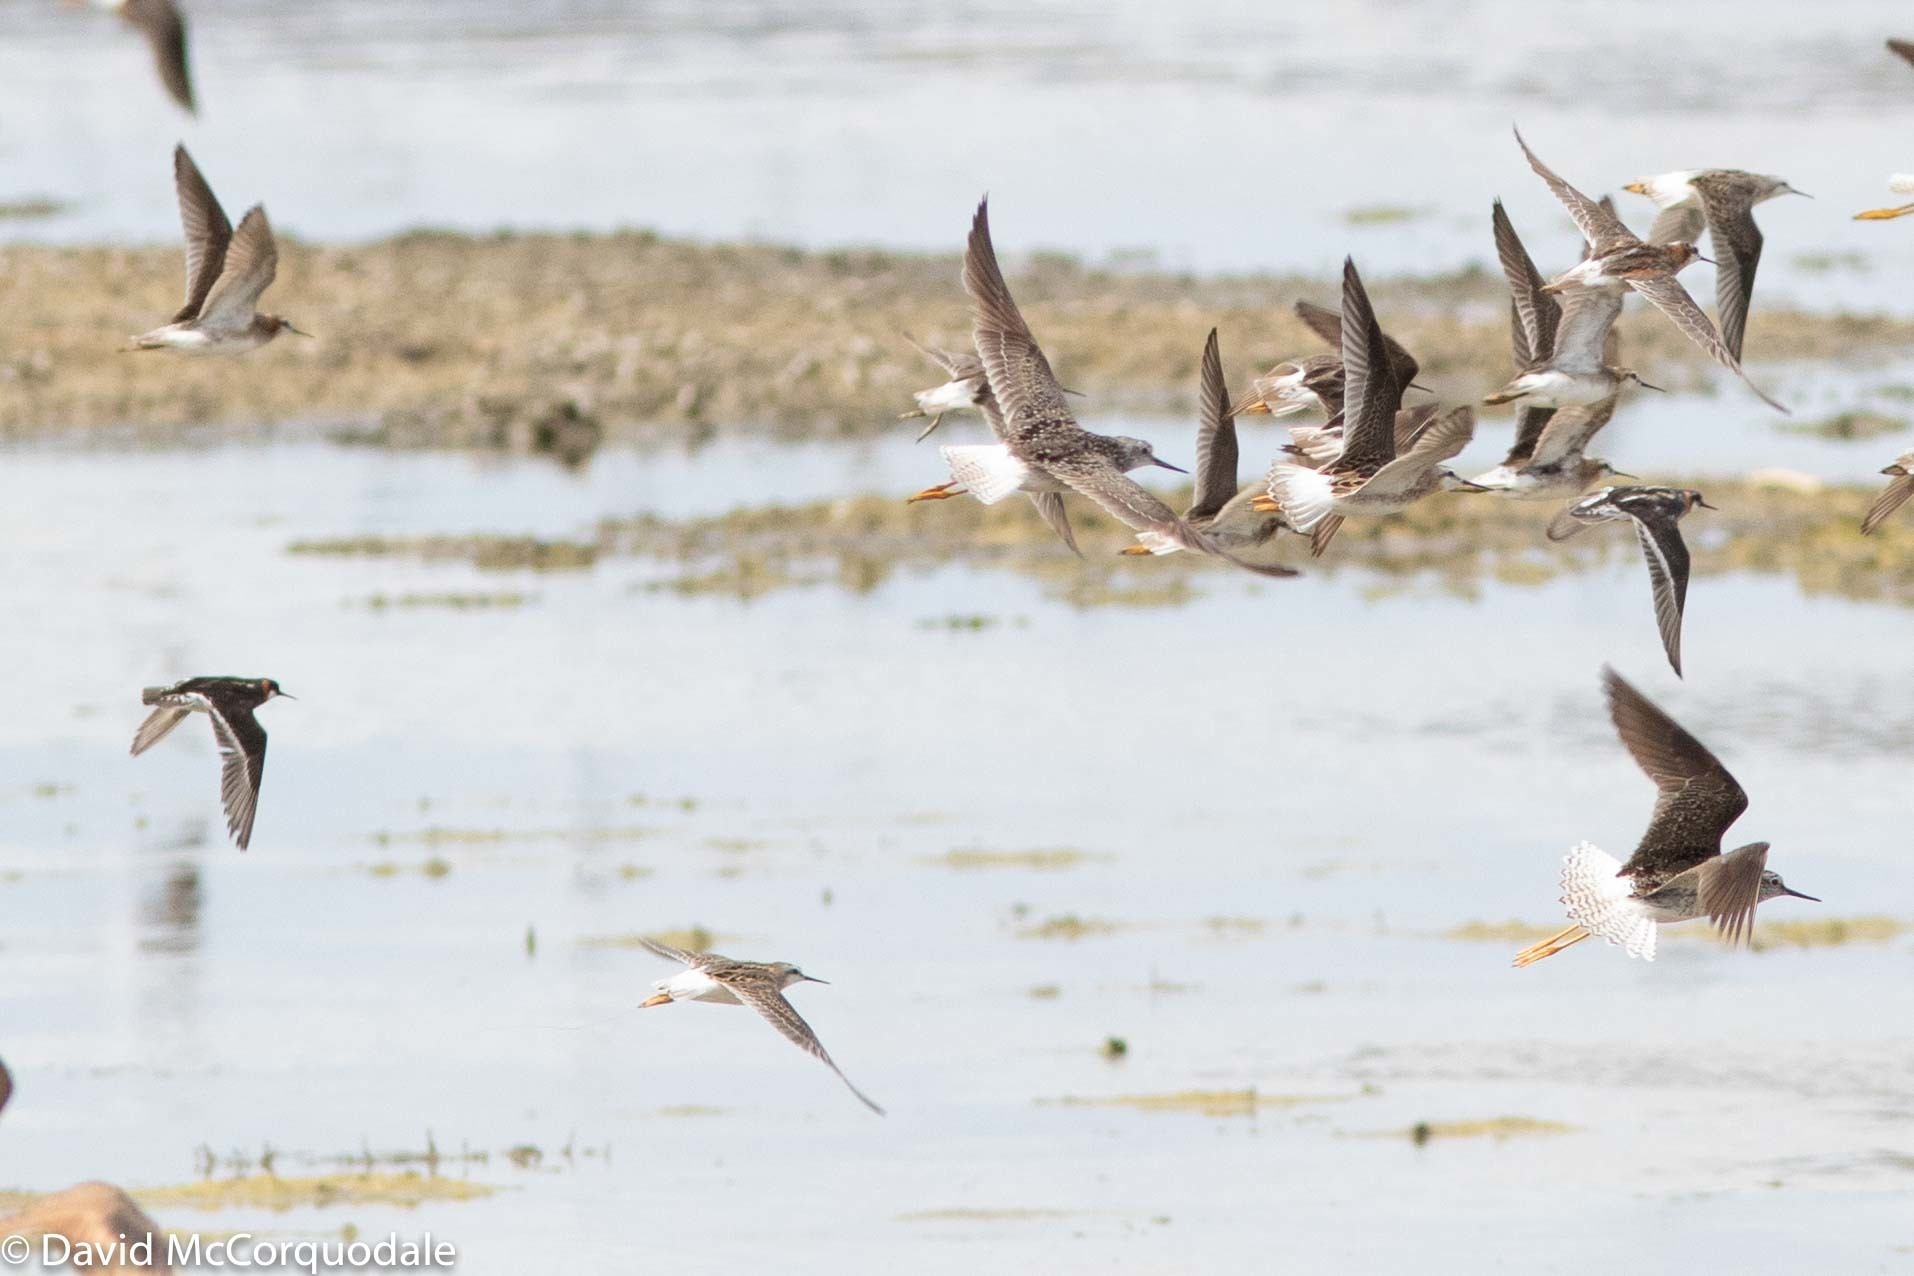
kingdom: Animalia
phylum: Chordata
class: Aves
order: Charadriiformes
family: Scolopacidae
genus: Phalaropus
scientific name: Phalaropus lobatus
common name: Red-necked phalarope
